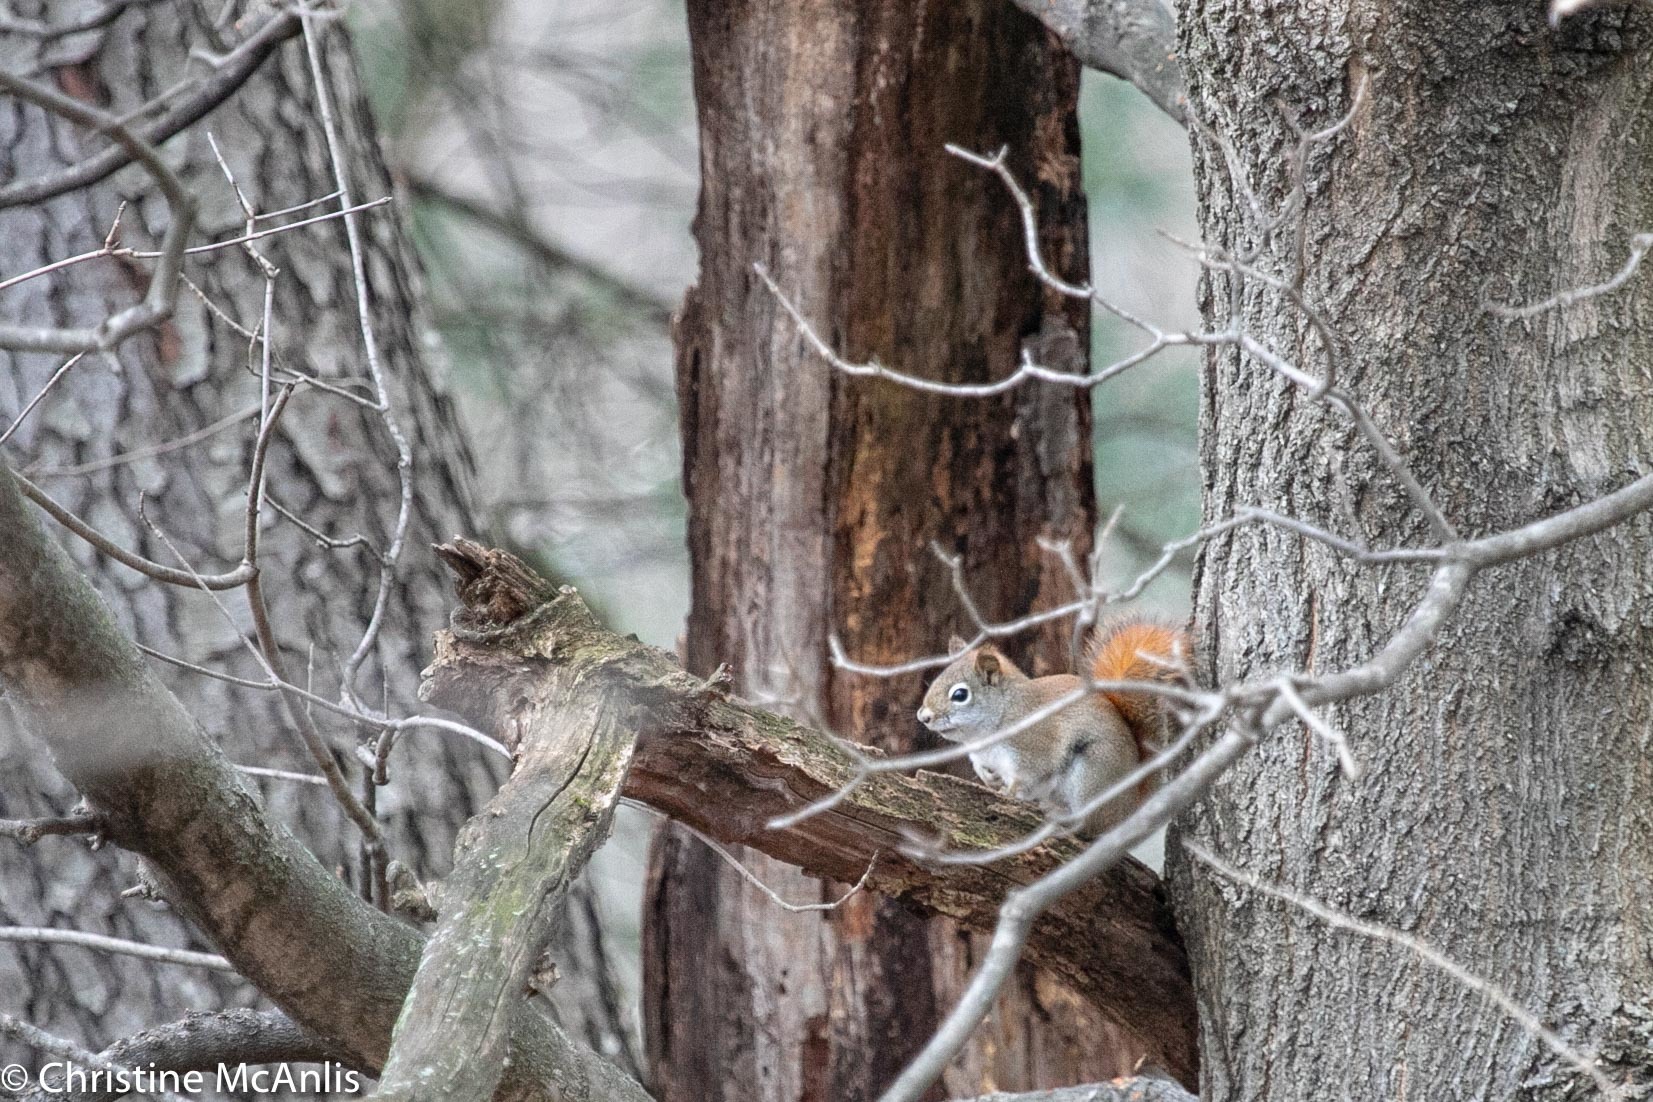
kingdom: Animalia
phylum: Chordata
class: Mammalia
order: Rodentia
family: Sciuridae
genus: Tamiasciurus
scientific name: Tamiasciurus hudsonicus
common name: Red squirrel
